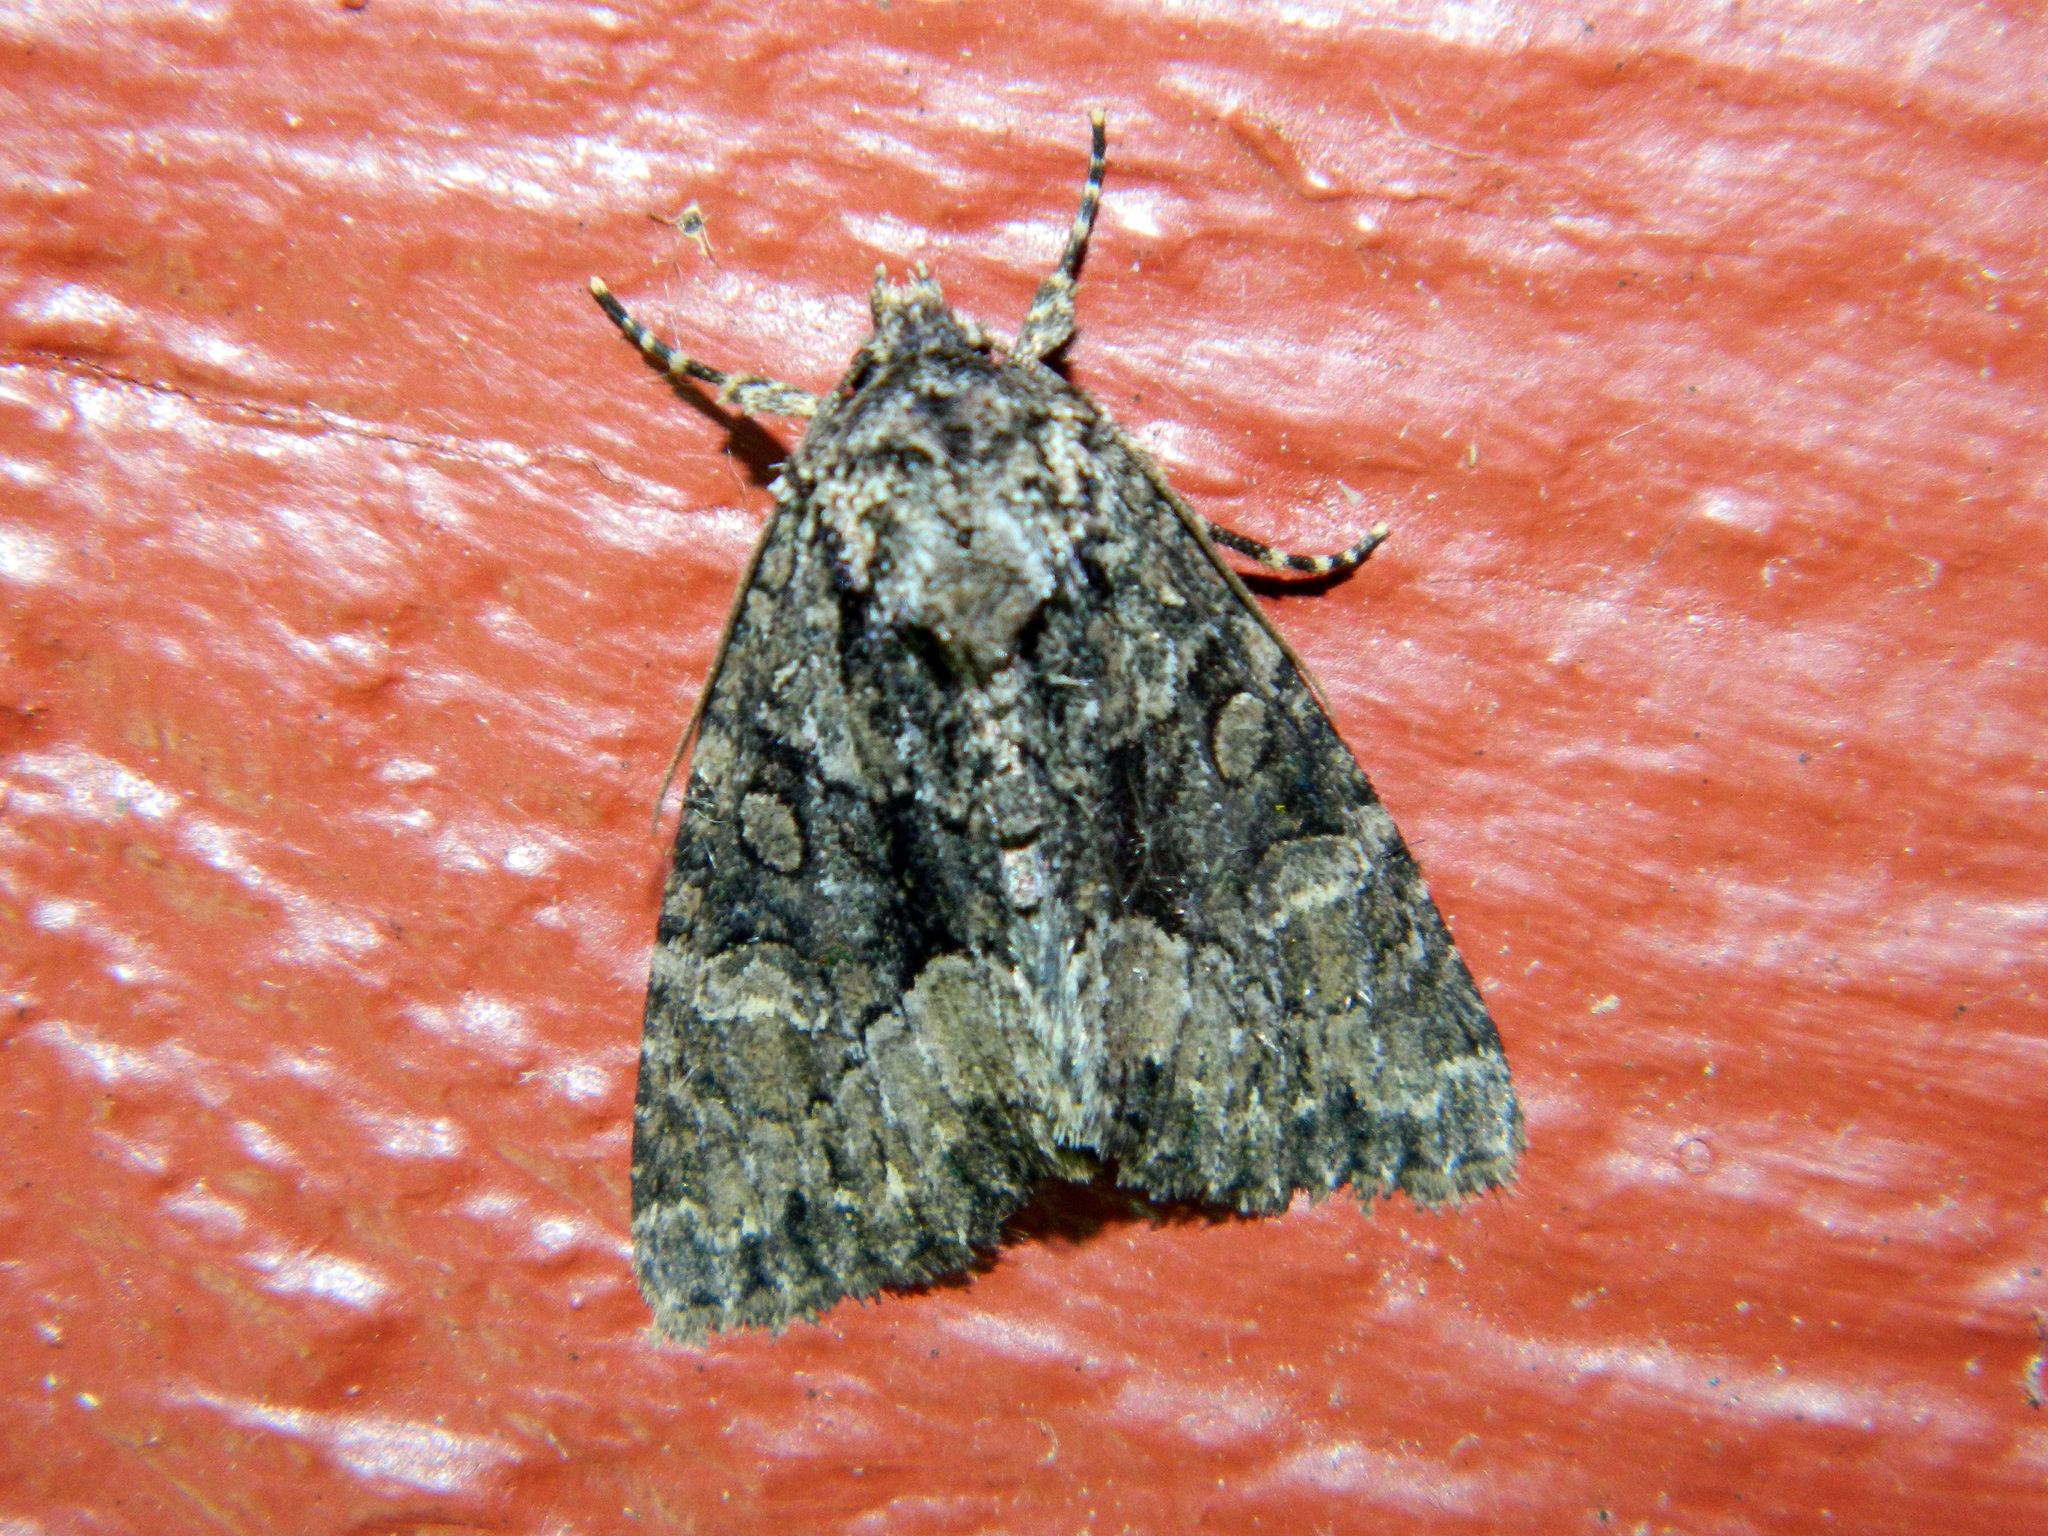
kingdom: Animalia
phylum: Arthropoda
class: Insecta
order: Lepidoptera
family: Noctuidae
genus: Platypolia
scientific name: Platypolia mactata
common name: Adorable brocade moth
